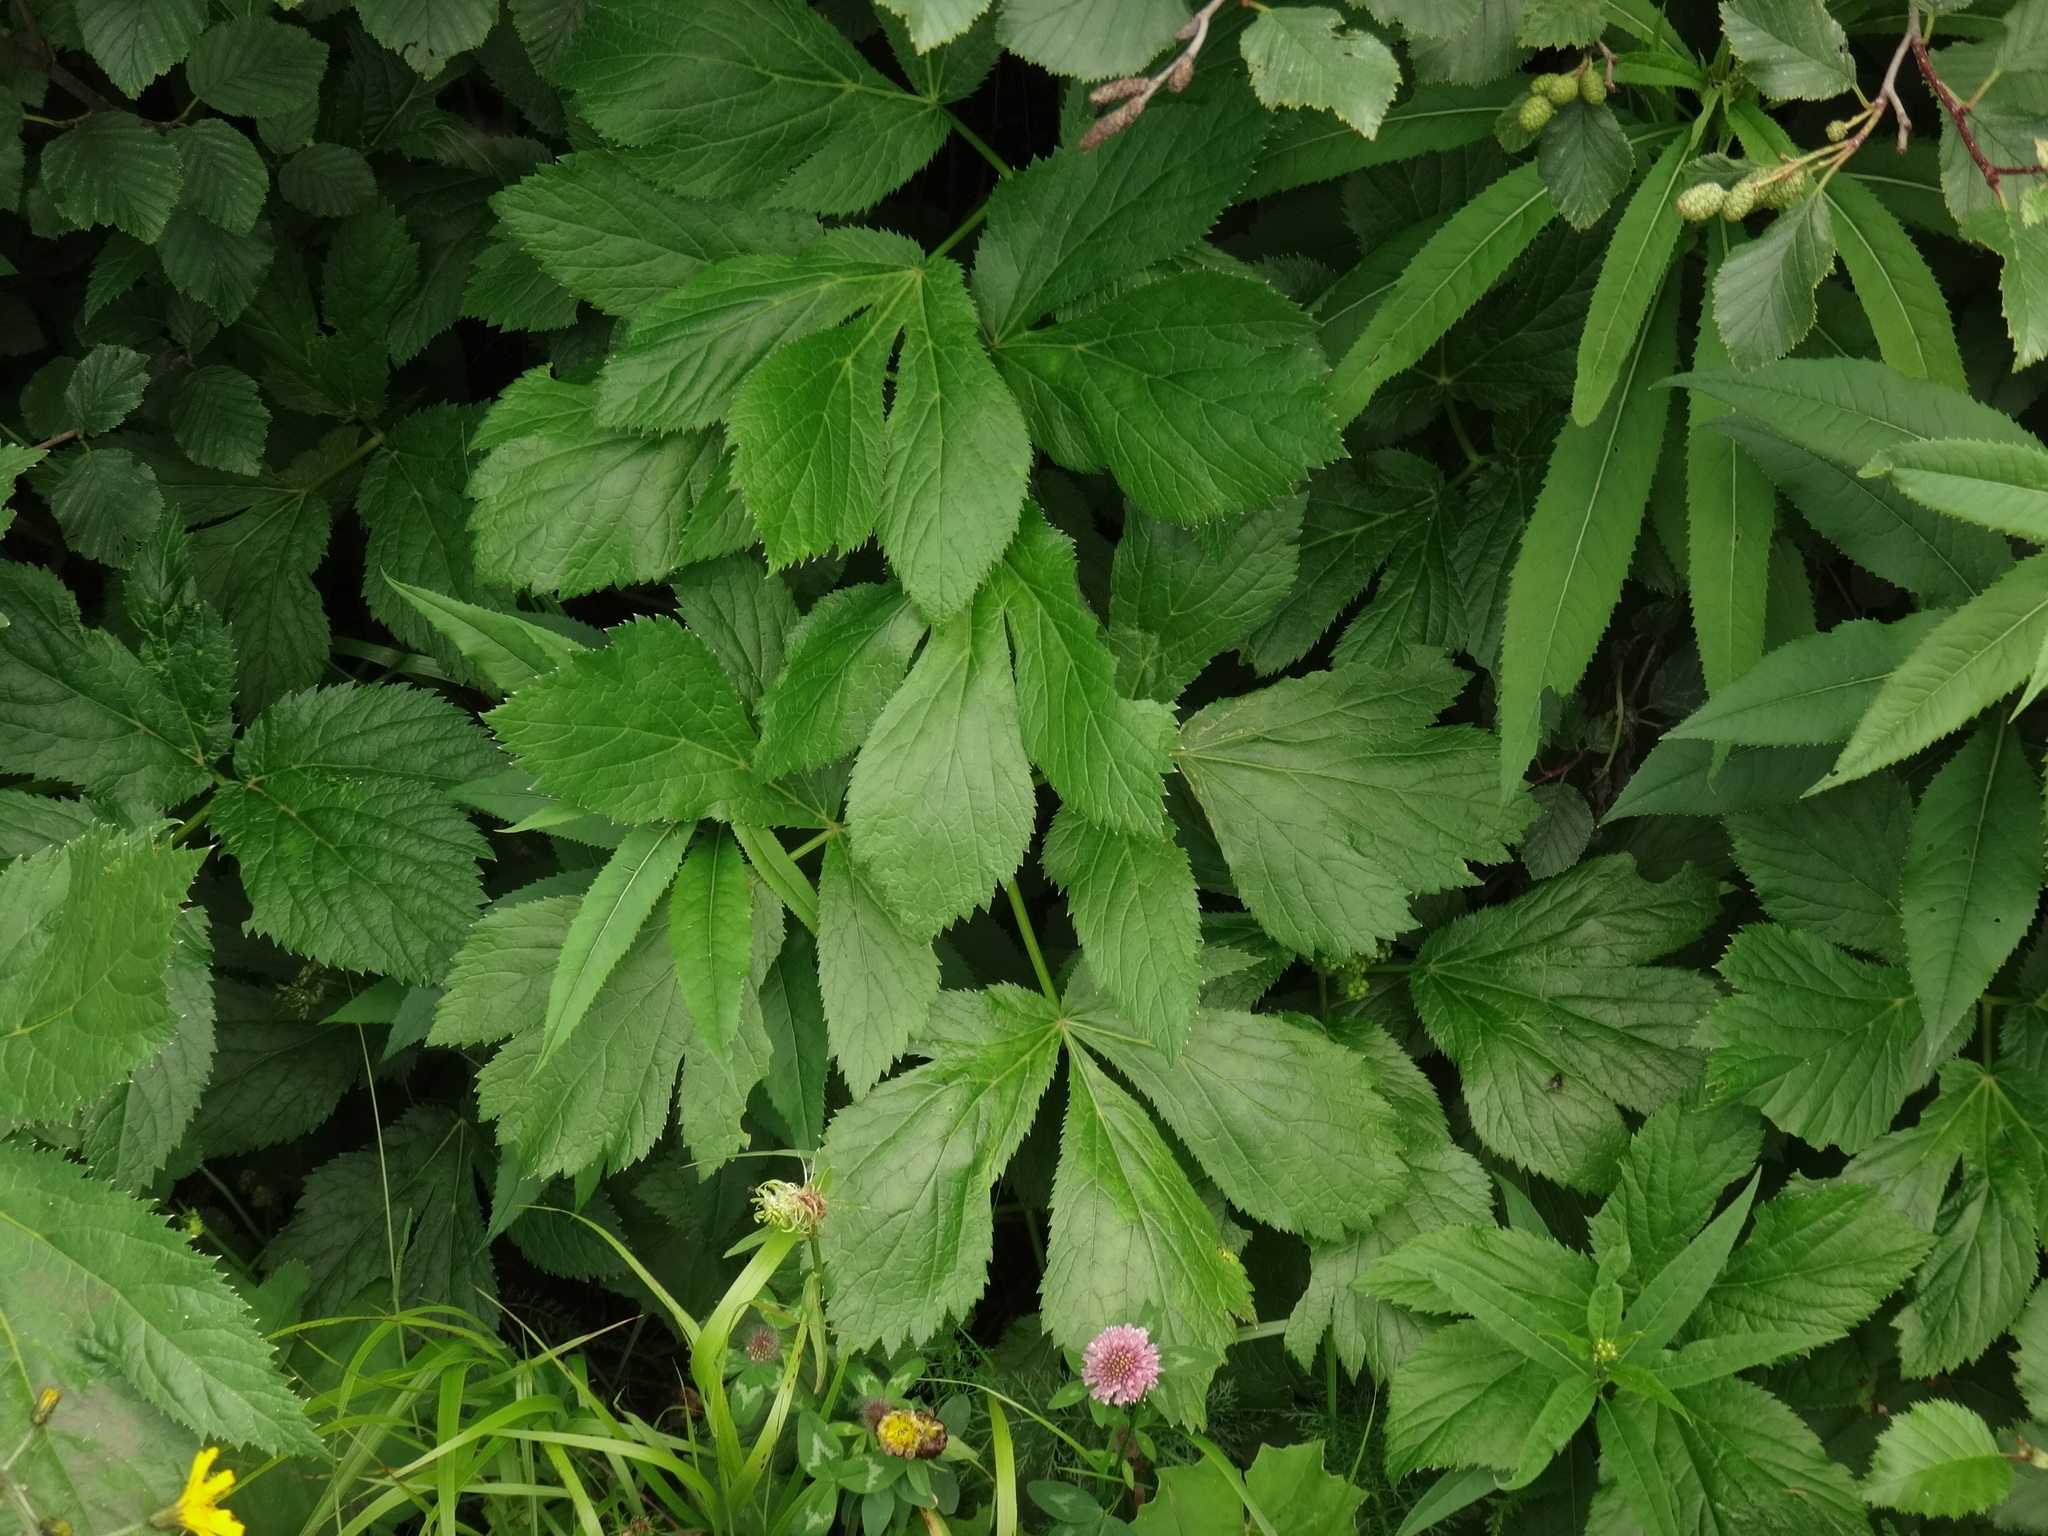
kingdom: Plantae
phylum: Tracheophyta
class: Magnoliopsida
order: Apiales
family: Apiaceae
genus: Imperatoria
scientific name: Imperatoria ostruthium
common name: Masterwort
